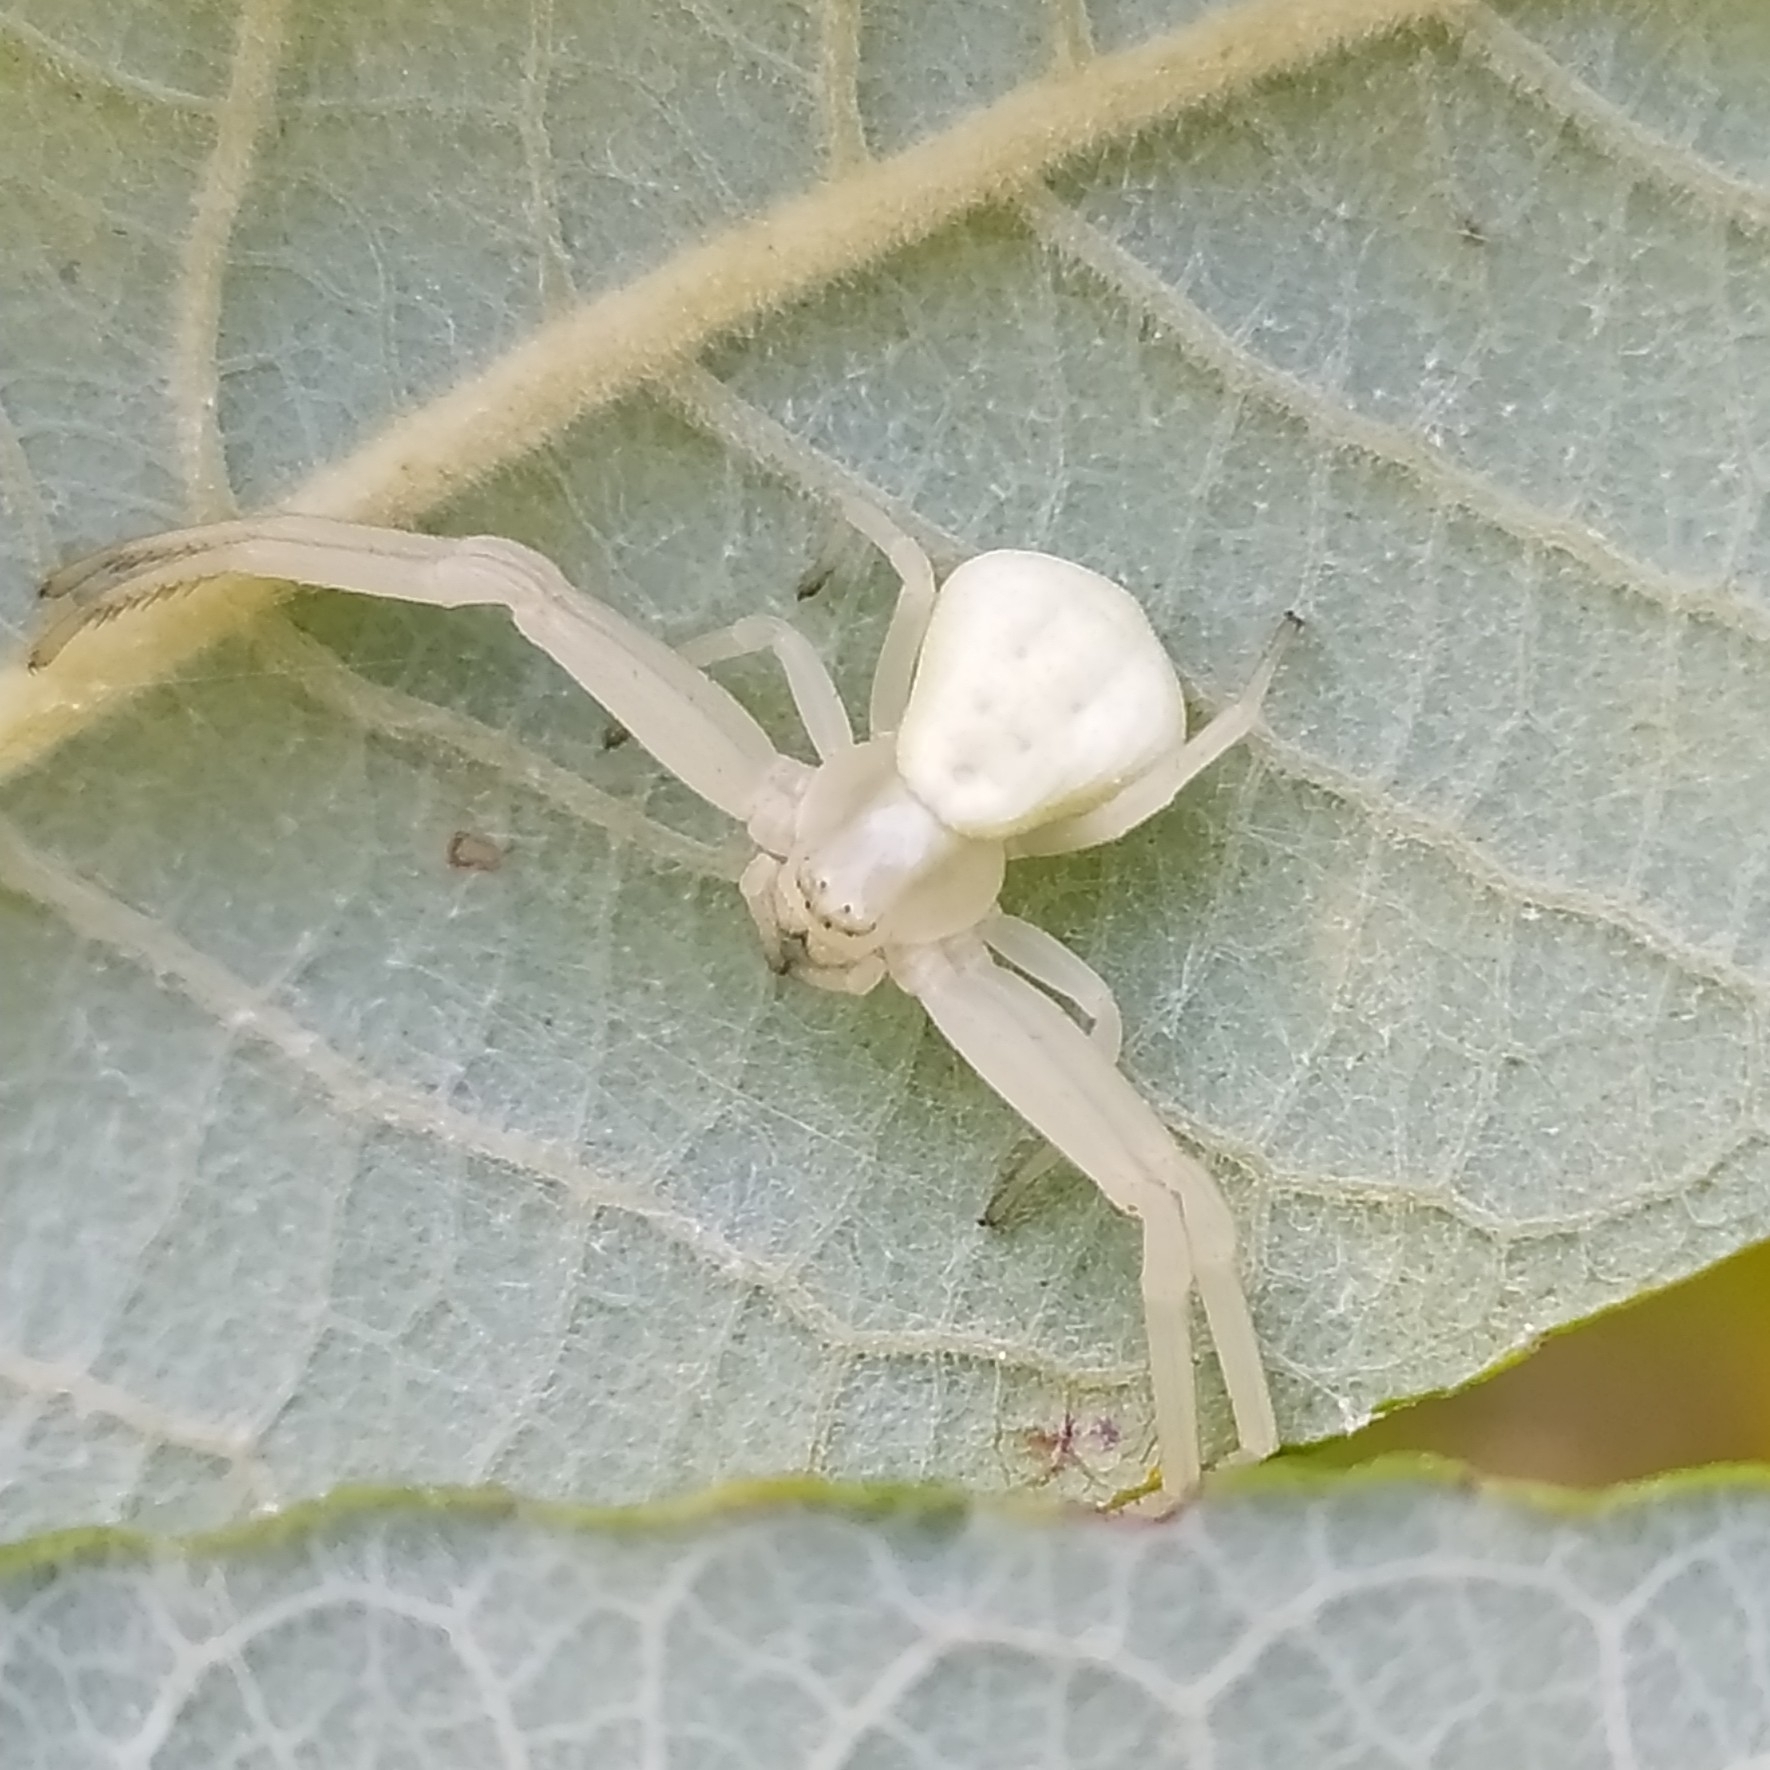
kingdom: Animalia
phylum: Arthropoda
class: Arachnida
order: Araneae
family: Thomisidae
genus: Misumena
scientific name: Misumena vatia
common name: Goldenrod crab spider
